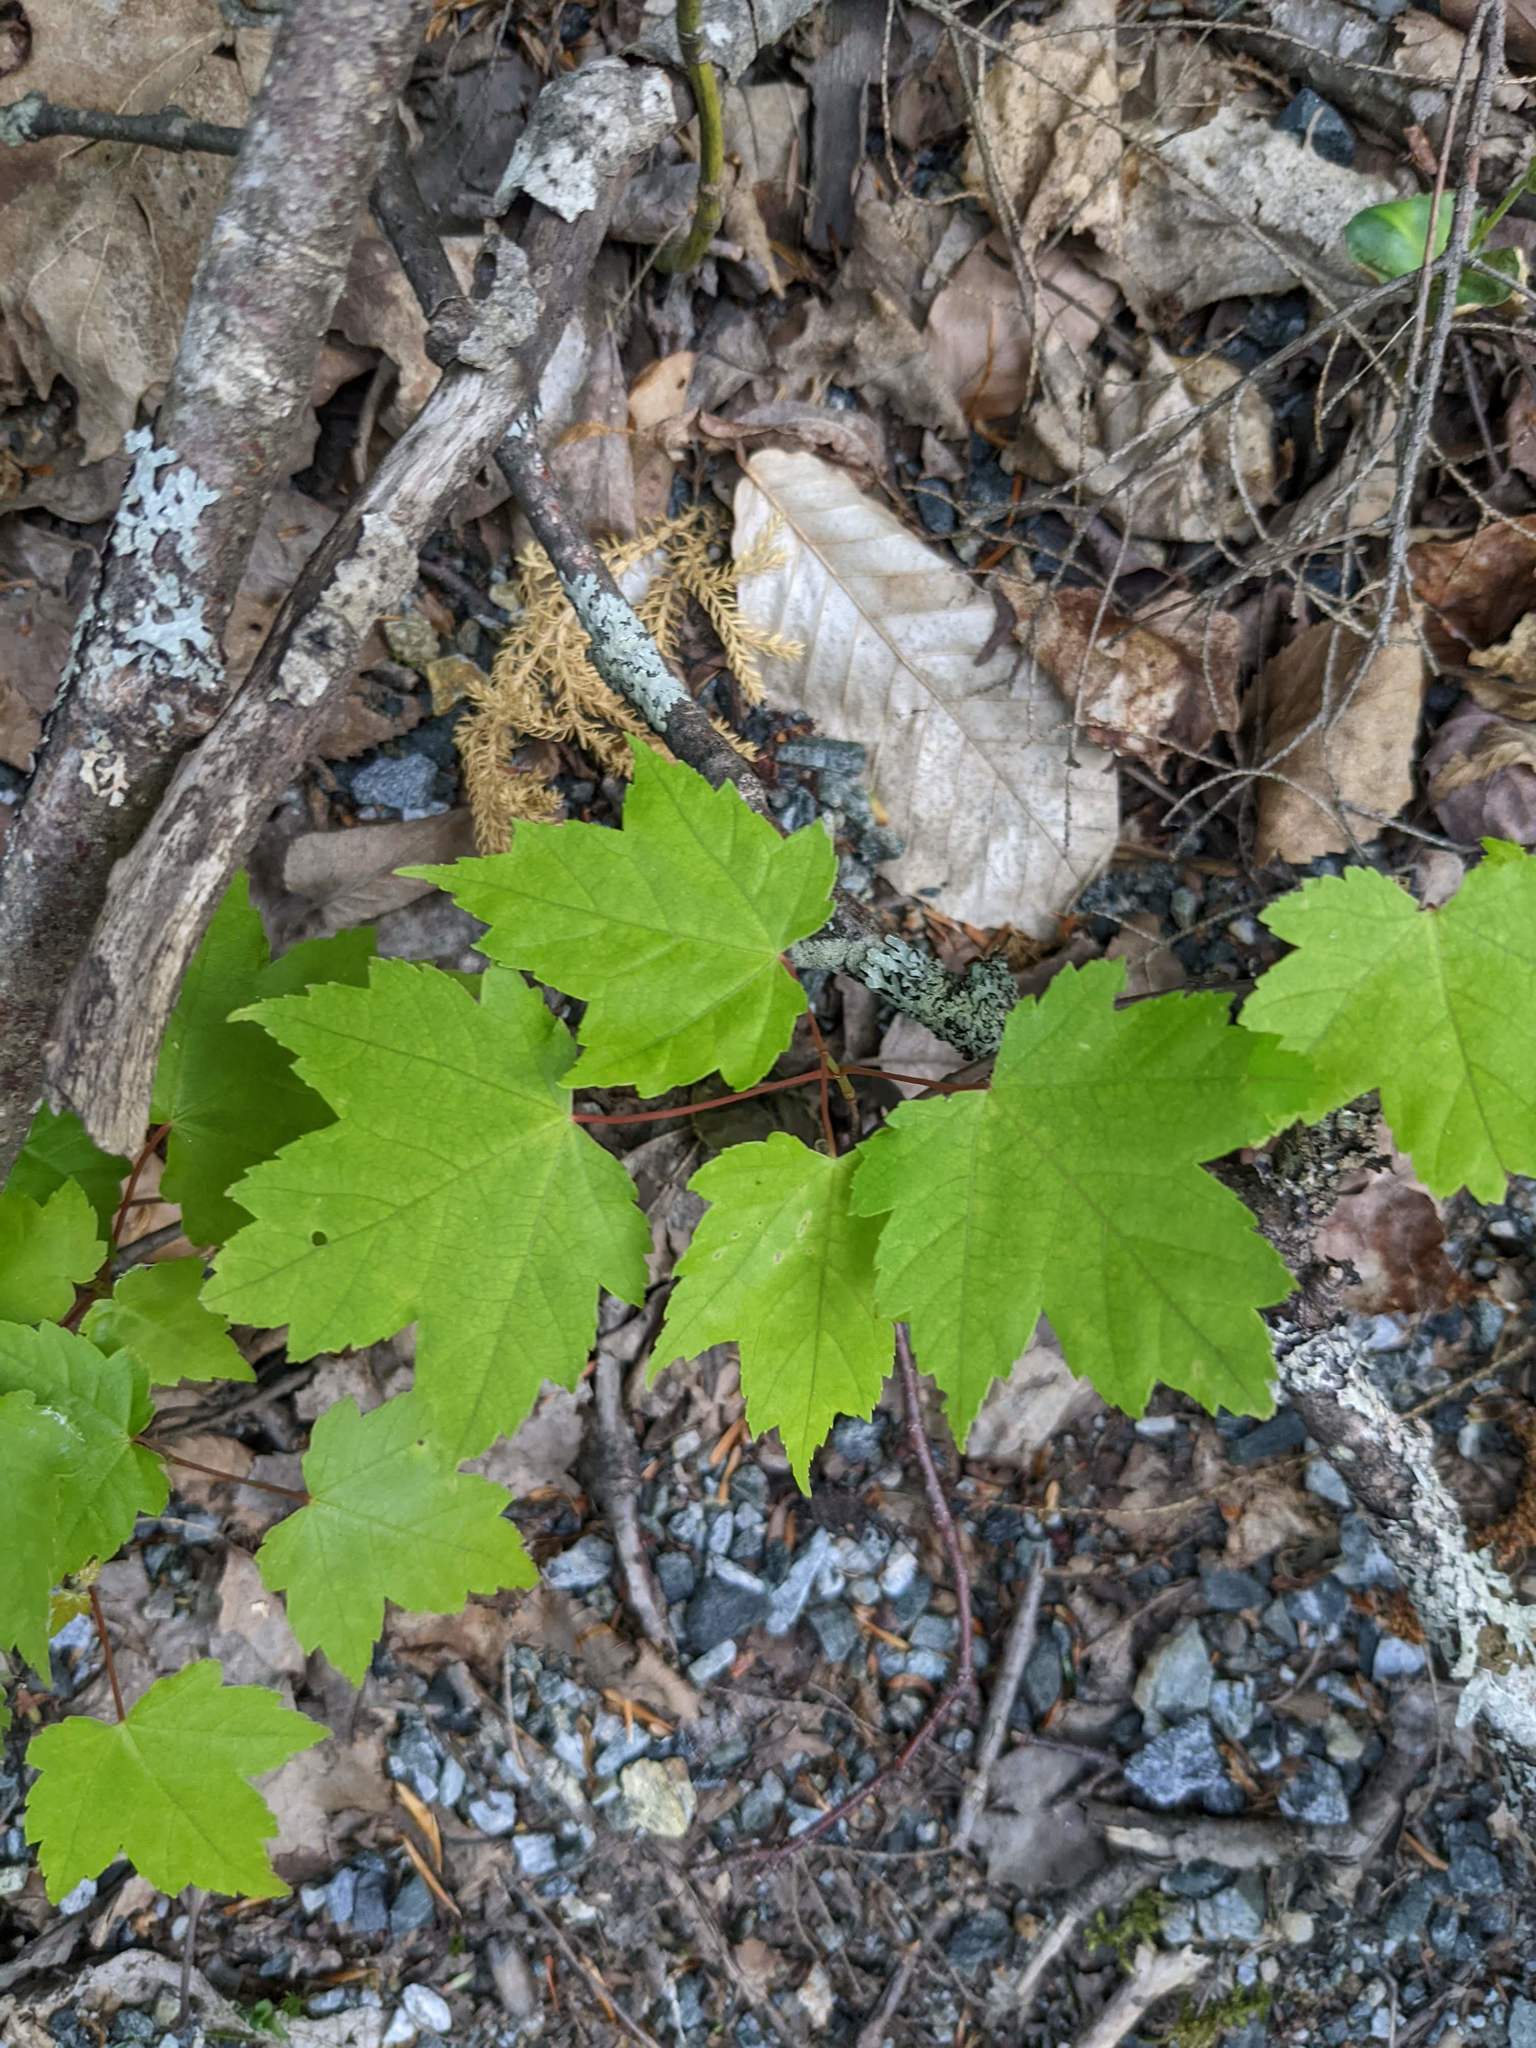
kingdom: Plantae
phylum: Tracheophyta
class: Magnoliopsida
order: Sapindales
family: Sapindaceae
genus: Acer
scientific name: Acer rubrum
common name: Red maple
